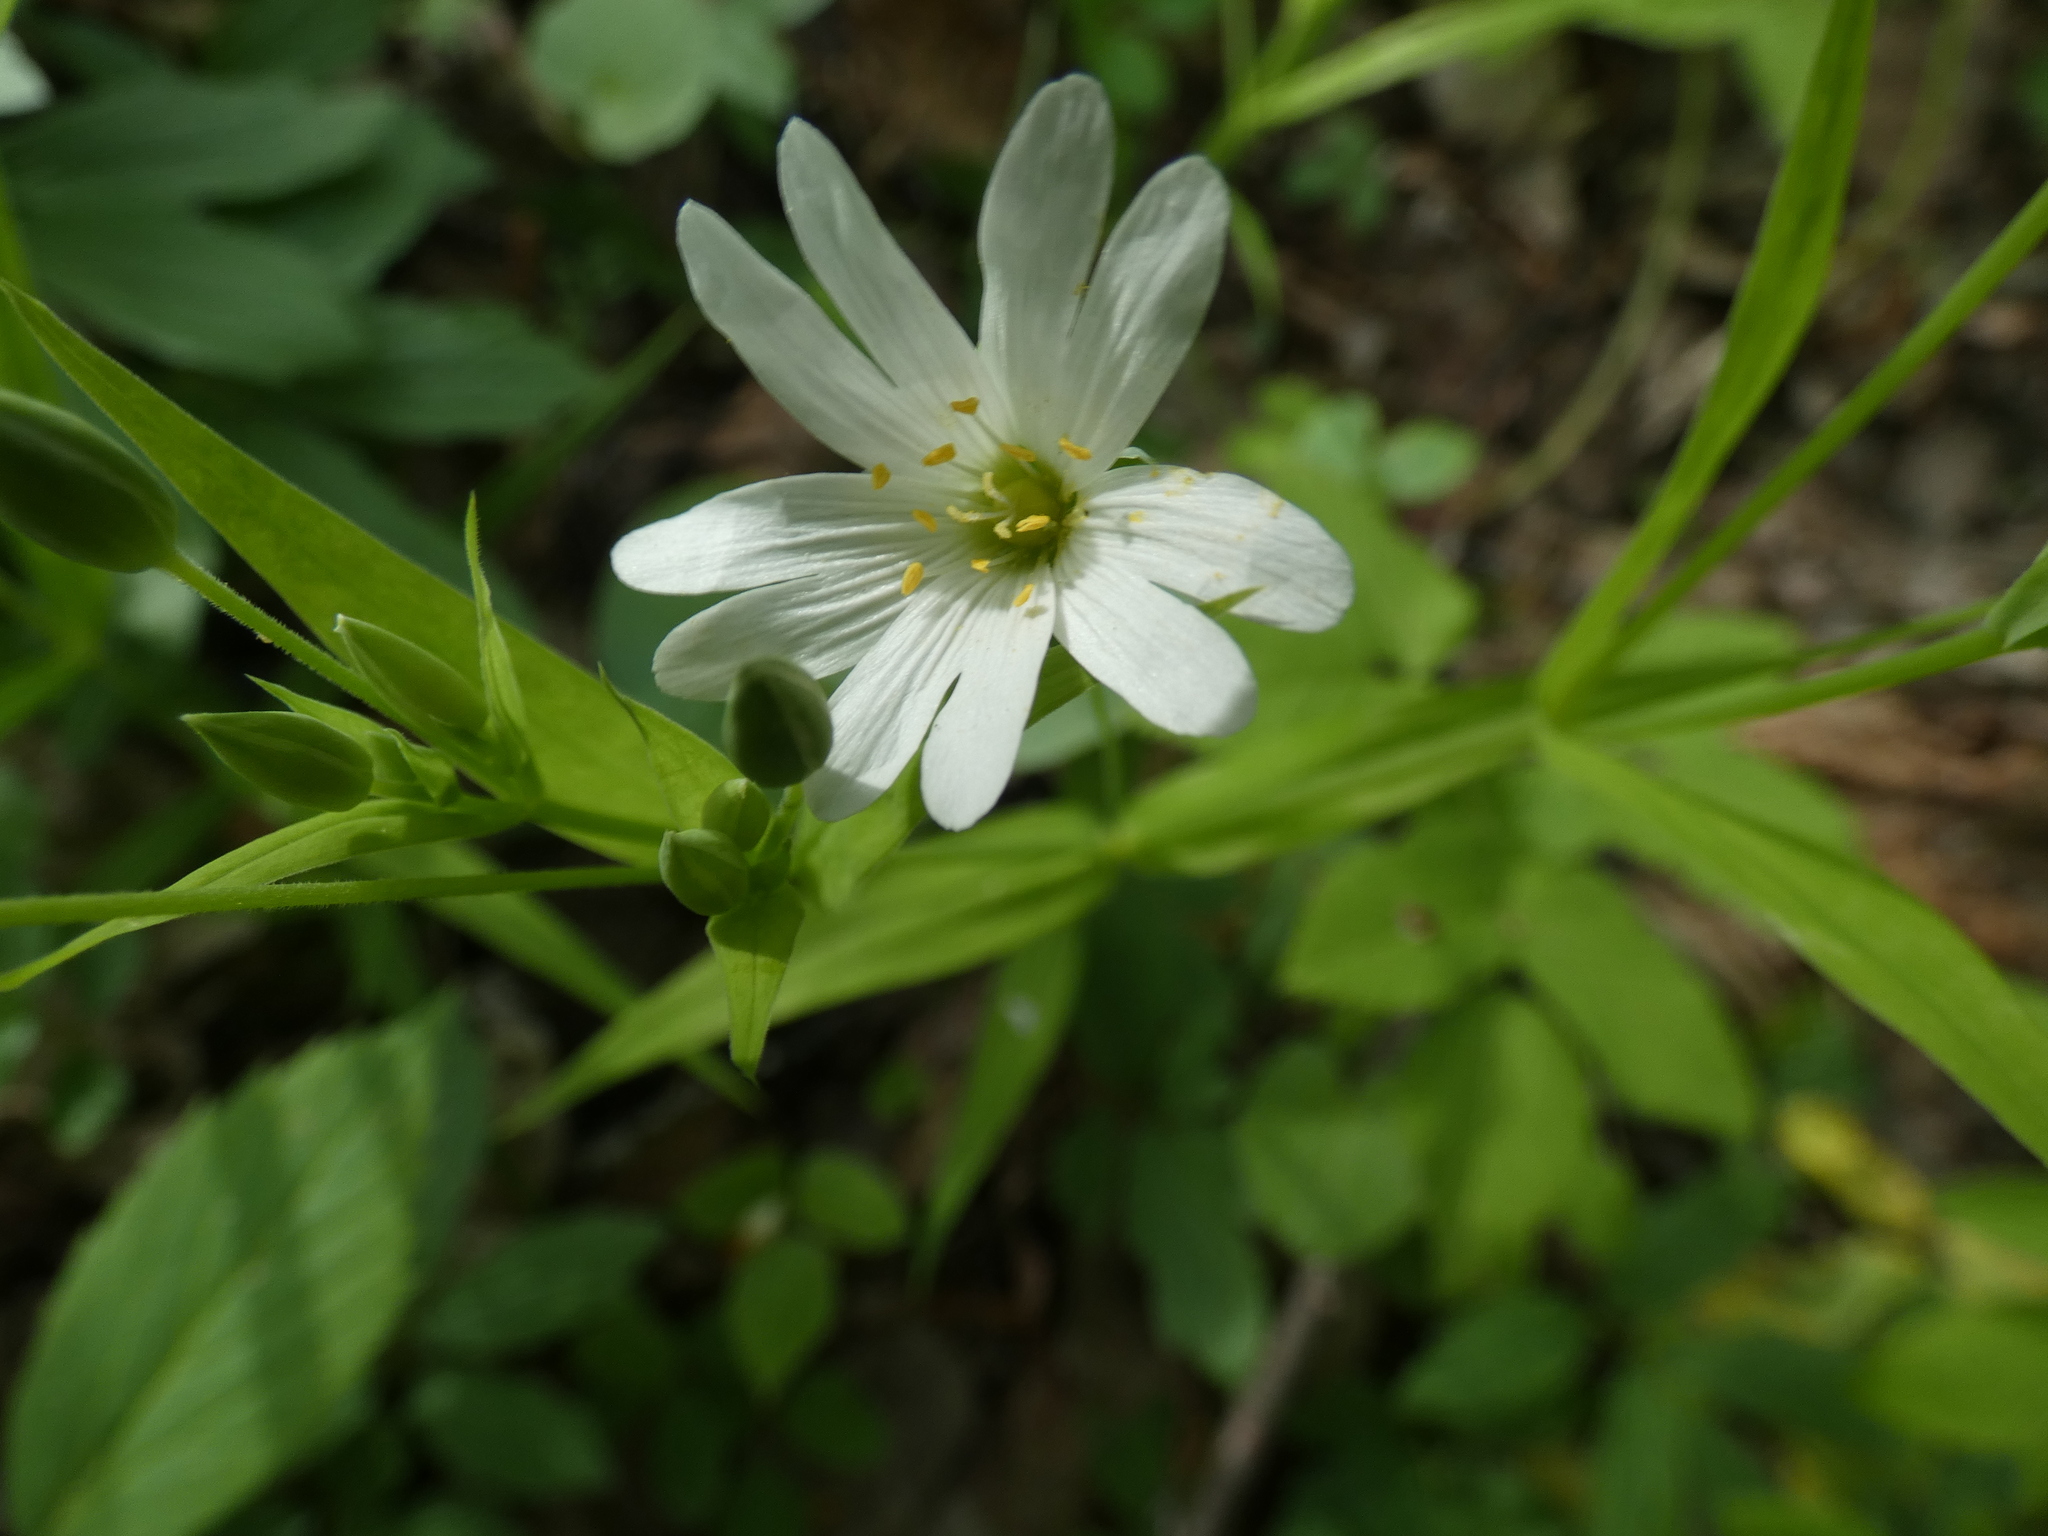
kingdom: Plantae
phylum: Tracheophyta
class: Magnoliopsida
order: Caryophyllales
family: Caryophyllaceae
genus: Rabelera
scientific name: Rabelera holostea
